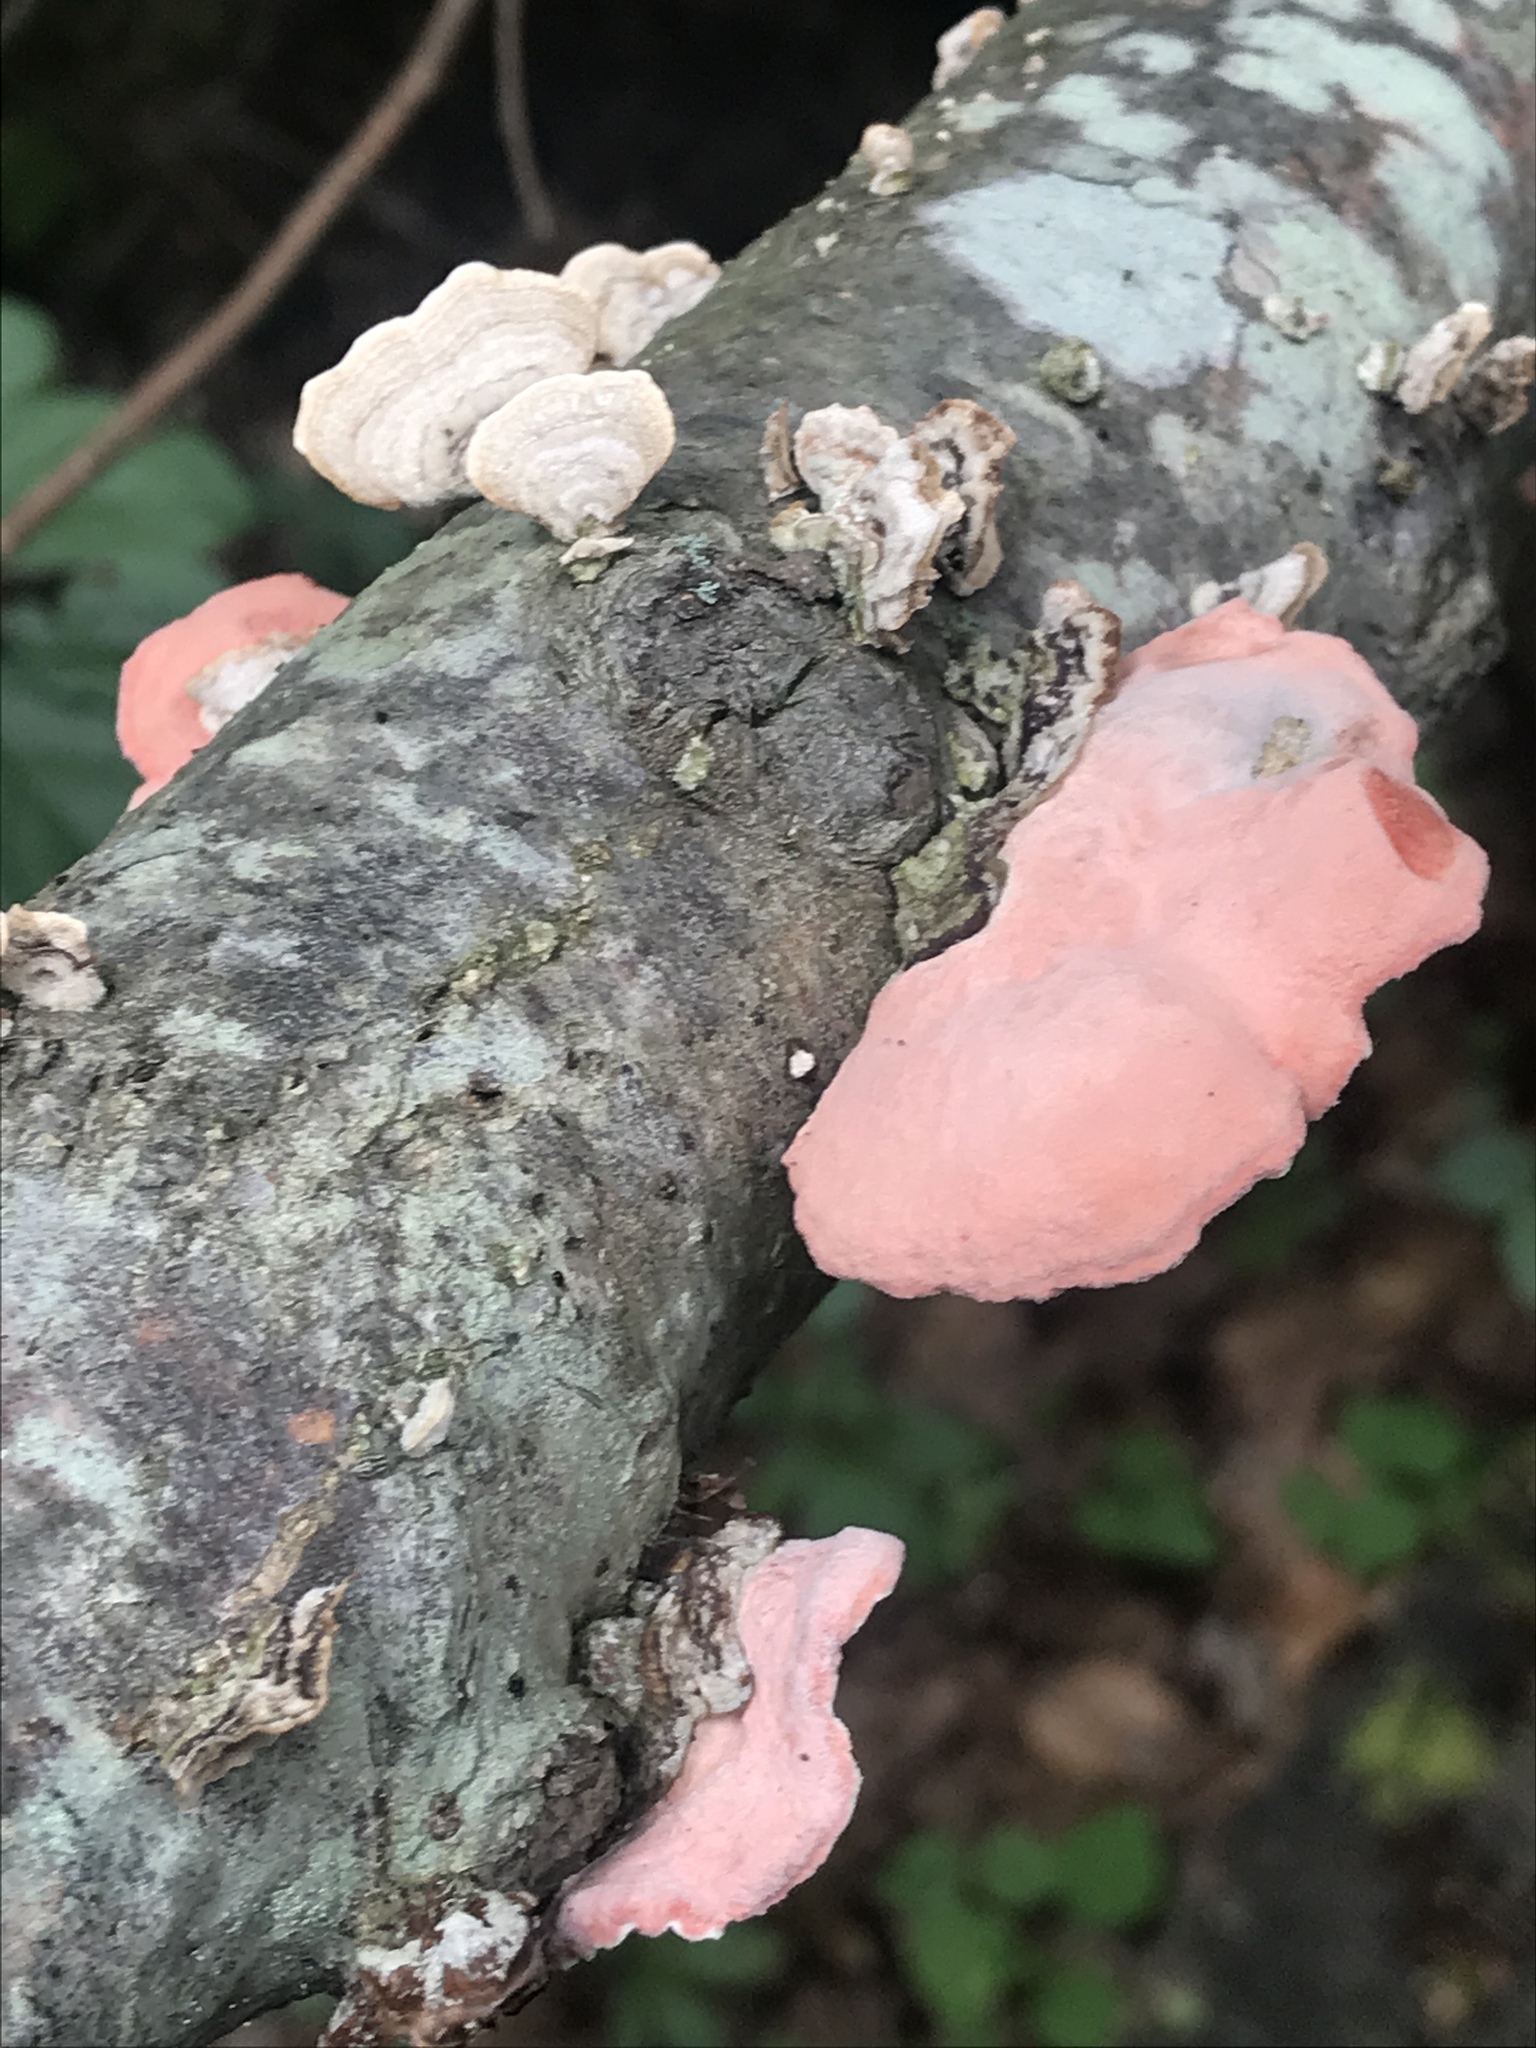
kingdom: Fungi
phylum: Basidiomycota
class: Agaricomycetes
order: Polyporales
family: Irpicaceae
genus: Byssomerulius
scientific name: Byssomerulius incarnatus
